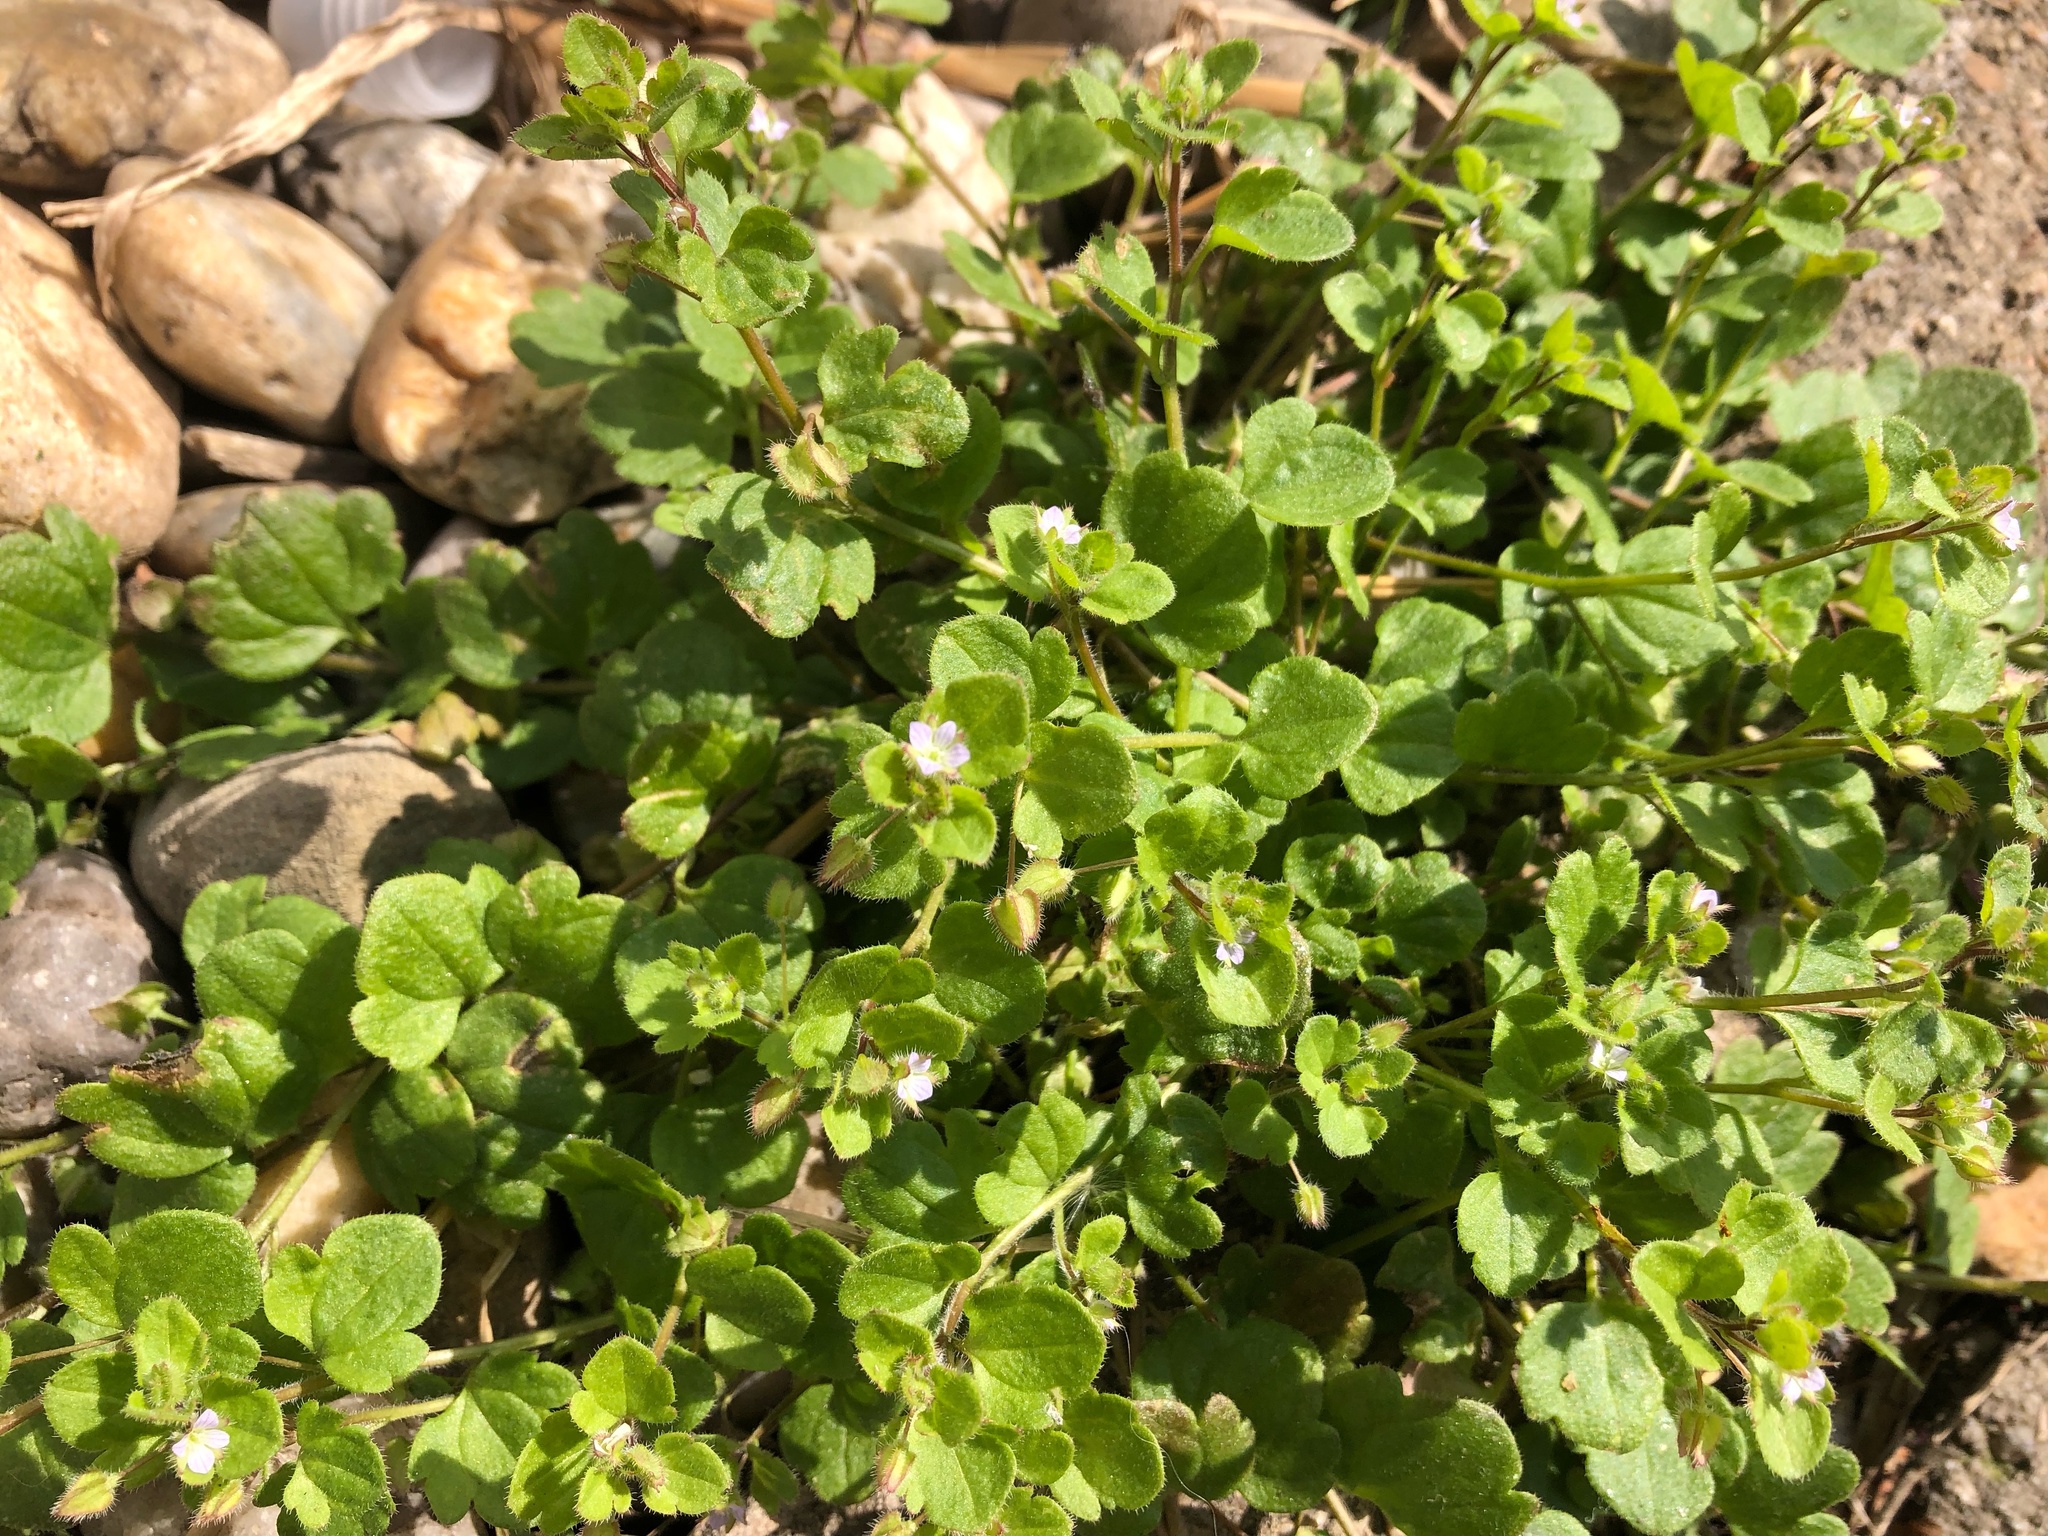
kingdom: Plantae
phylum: Tracheophyta
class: Magnoliopsida
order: Lamiales
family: Plantaginaceae
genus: Veronica
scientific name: Veronica sublobata
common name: False ivy-leaved speedwell
